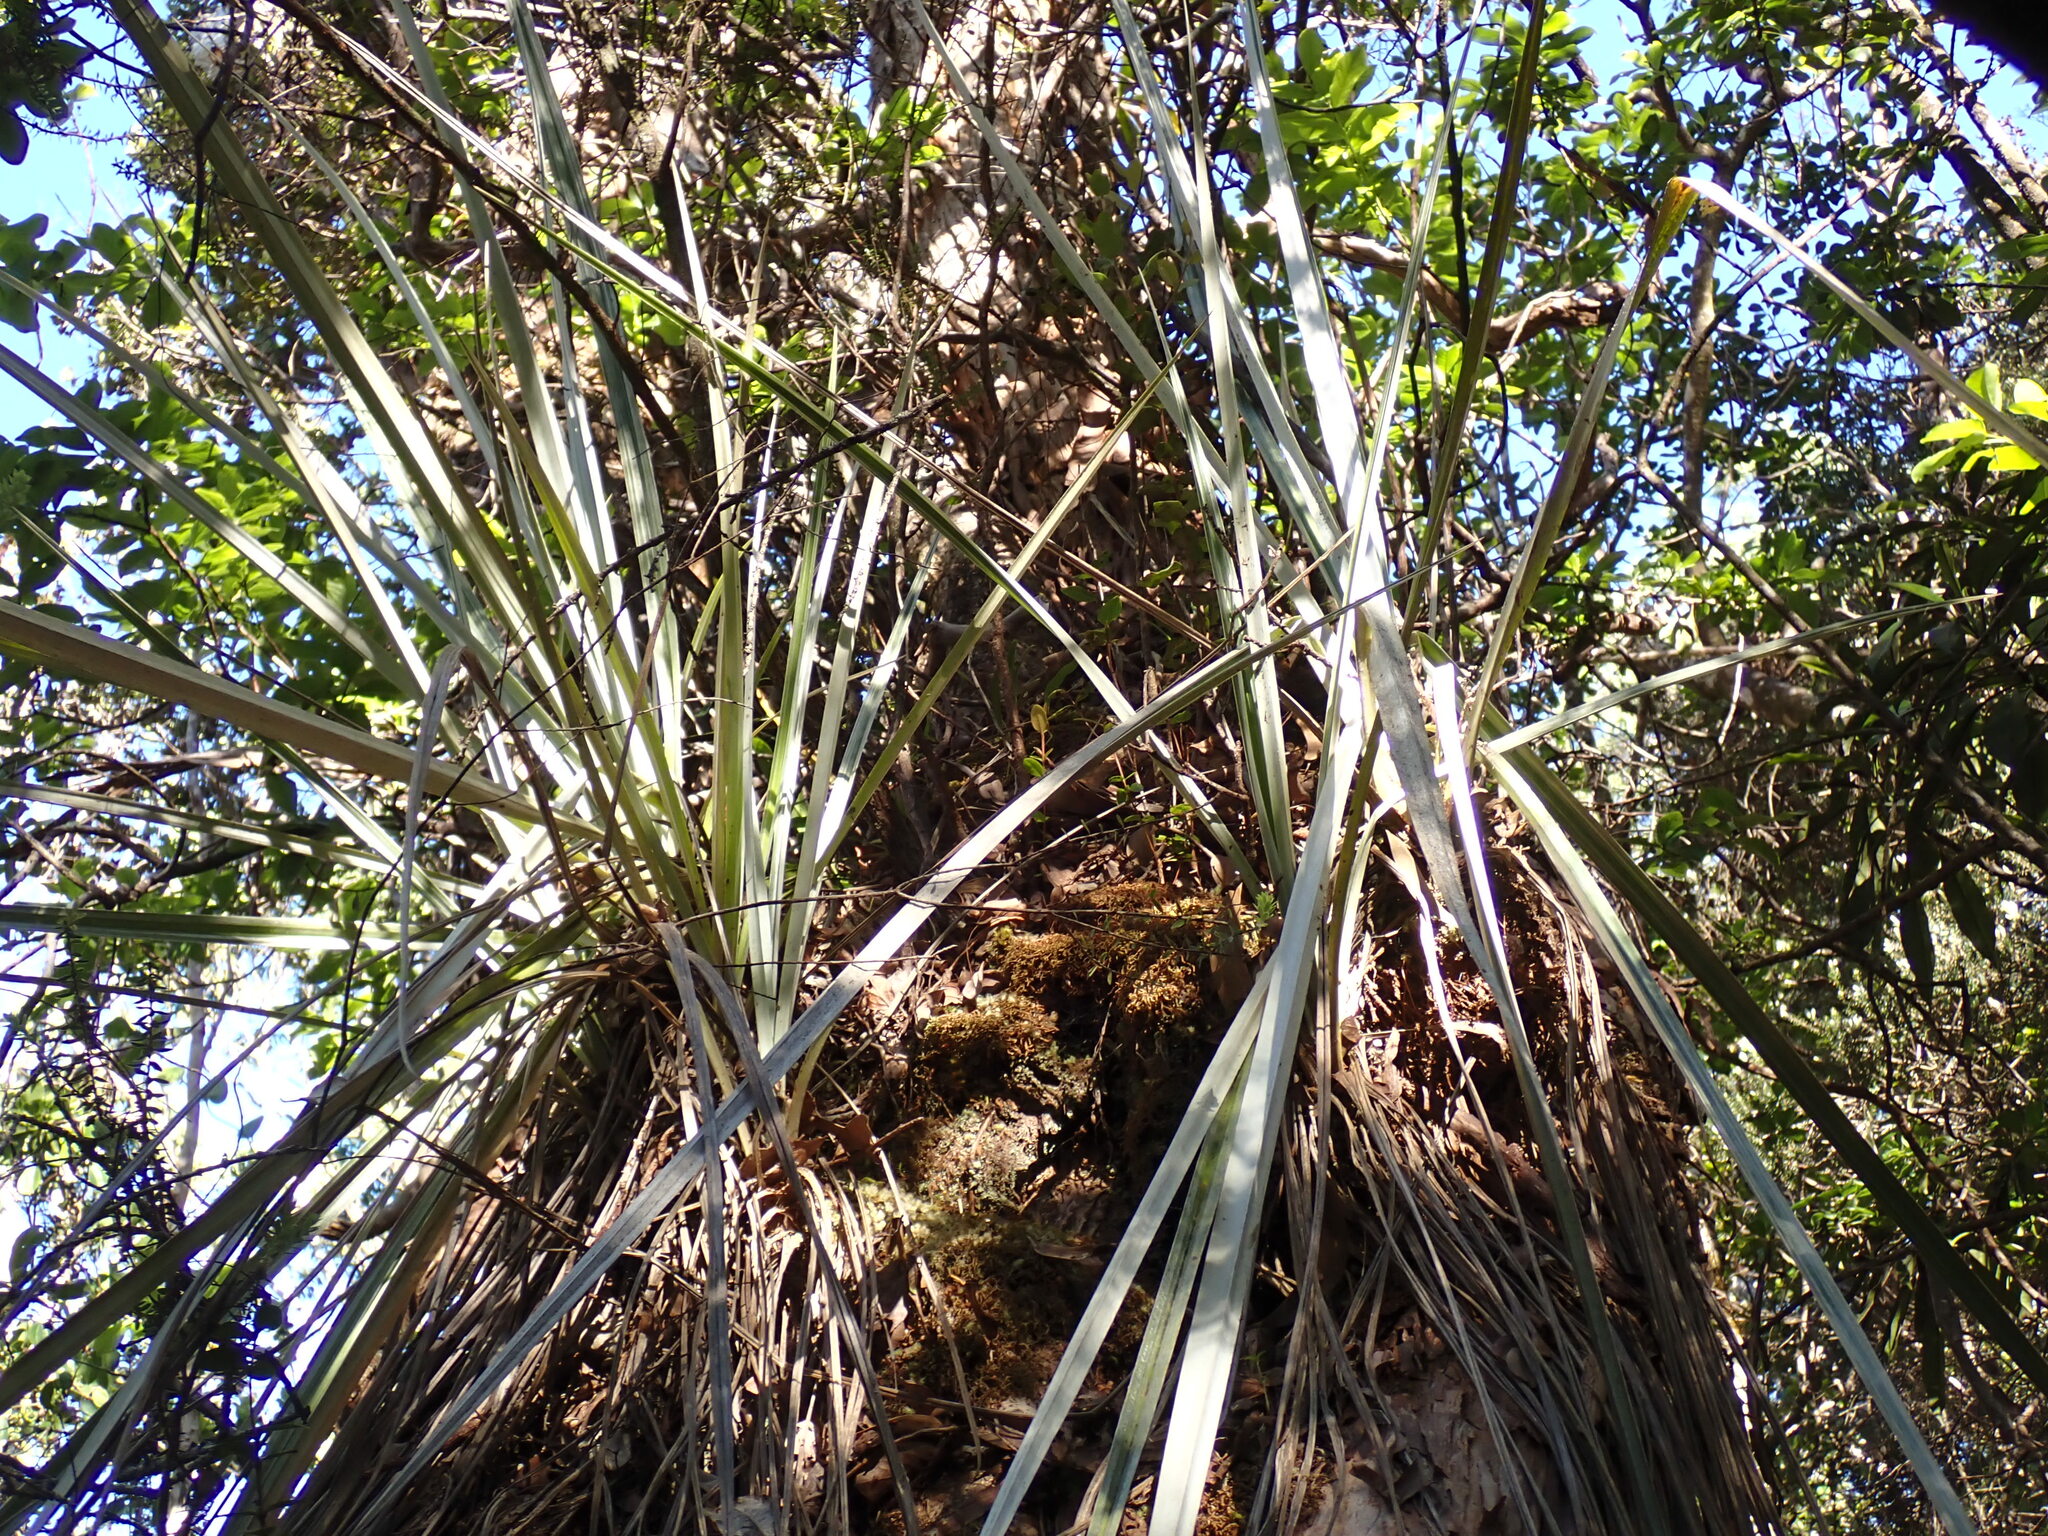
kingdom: Plantae
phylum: Tracheophyta
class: Liliopsida
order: Asparagales
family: Asteliaceae
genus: Astelia
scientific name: Astelia menziesiana
